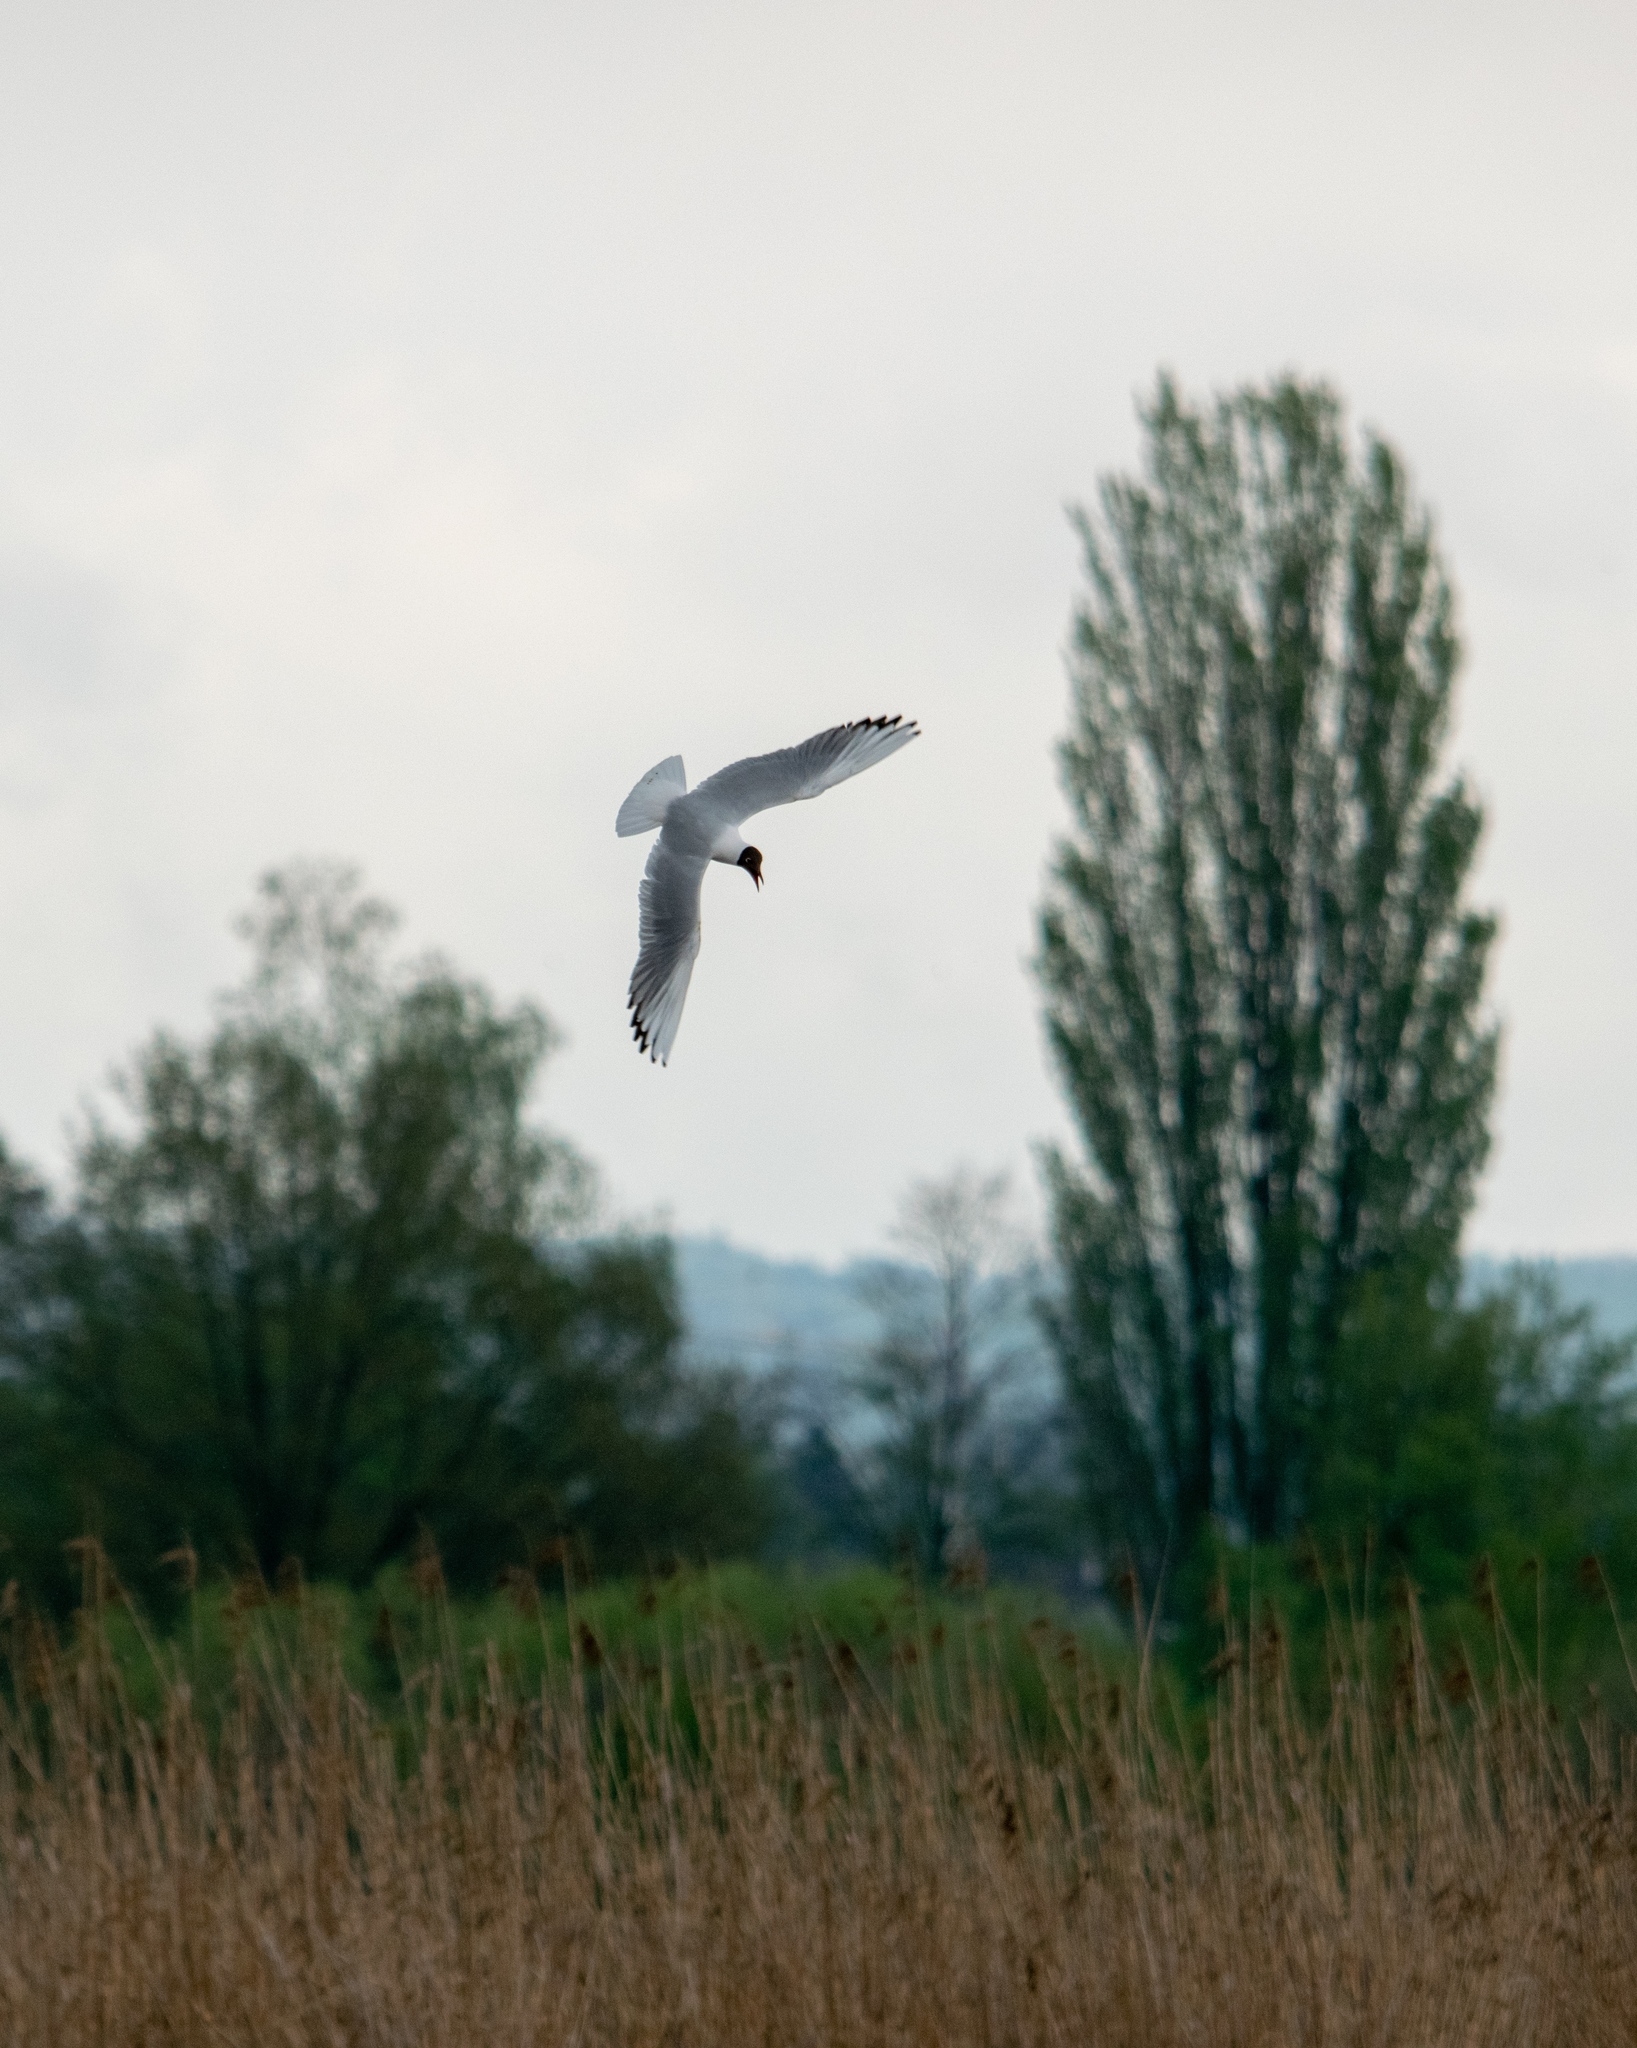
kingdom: Animalia
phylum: Chordata
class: Aves
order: Charadriiformes
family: Laridae
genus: Chroicocephalus
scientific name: Chroicocephalus ridibundus
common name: Black-headed gull
